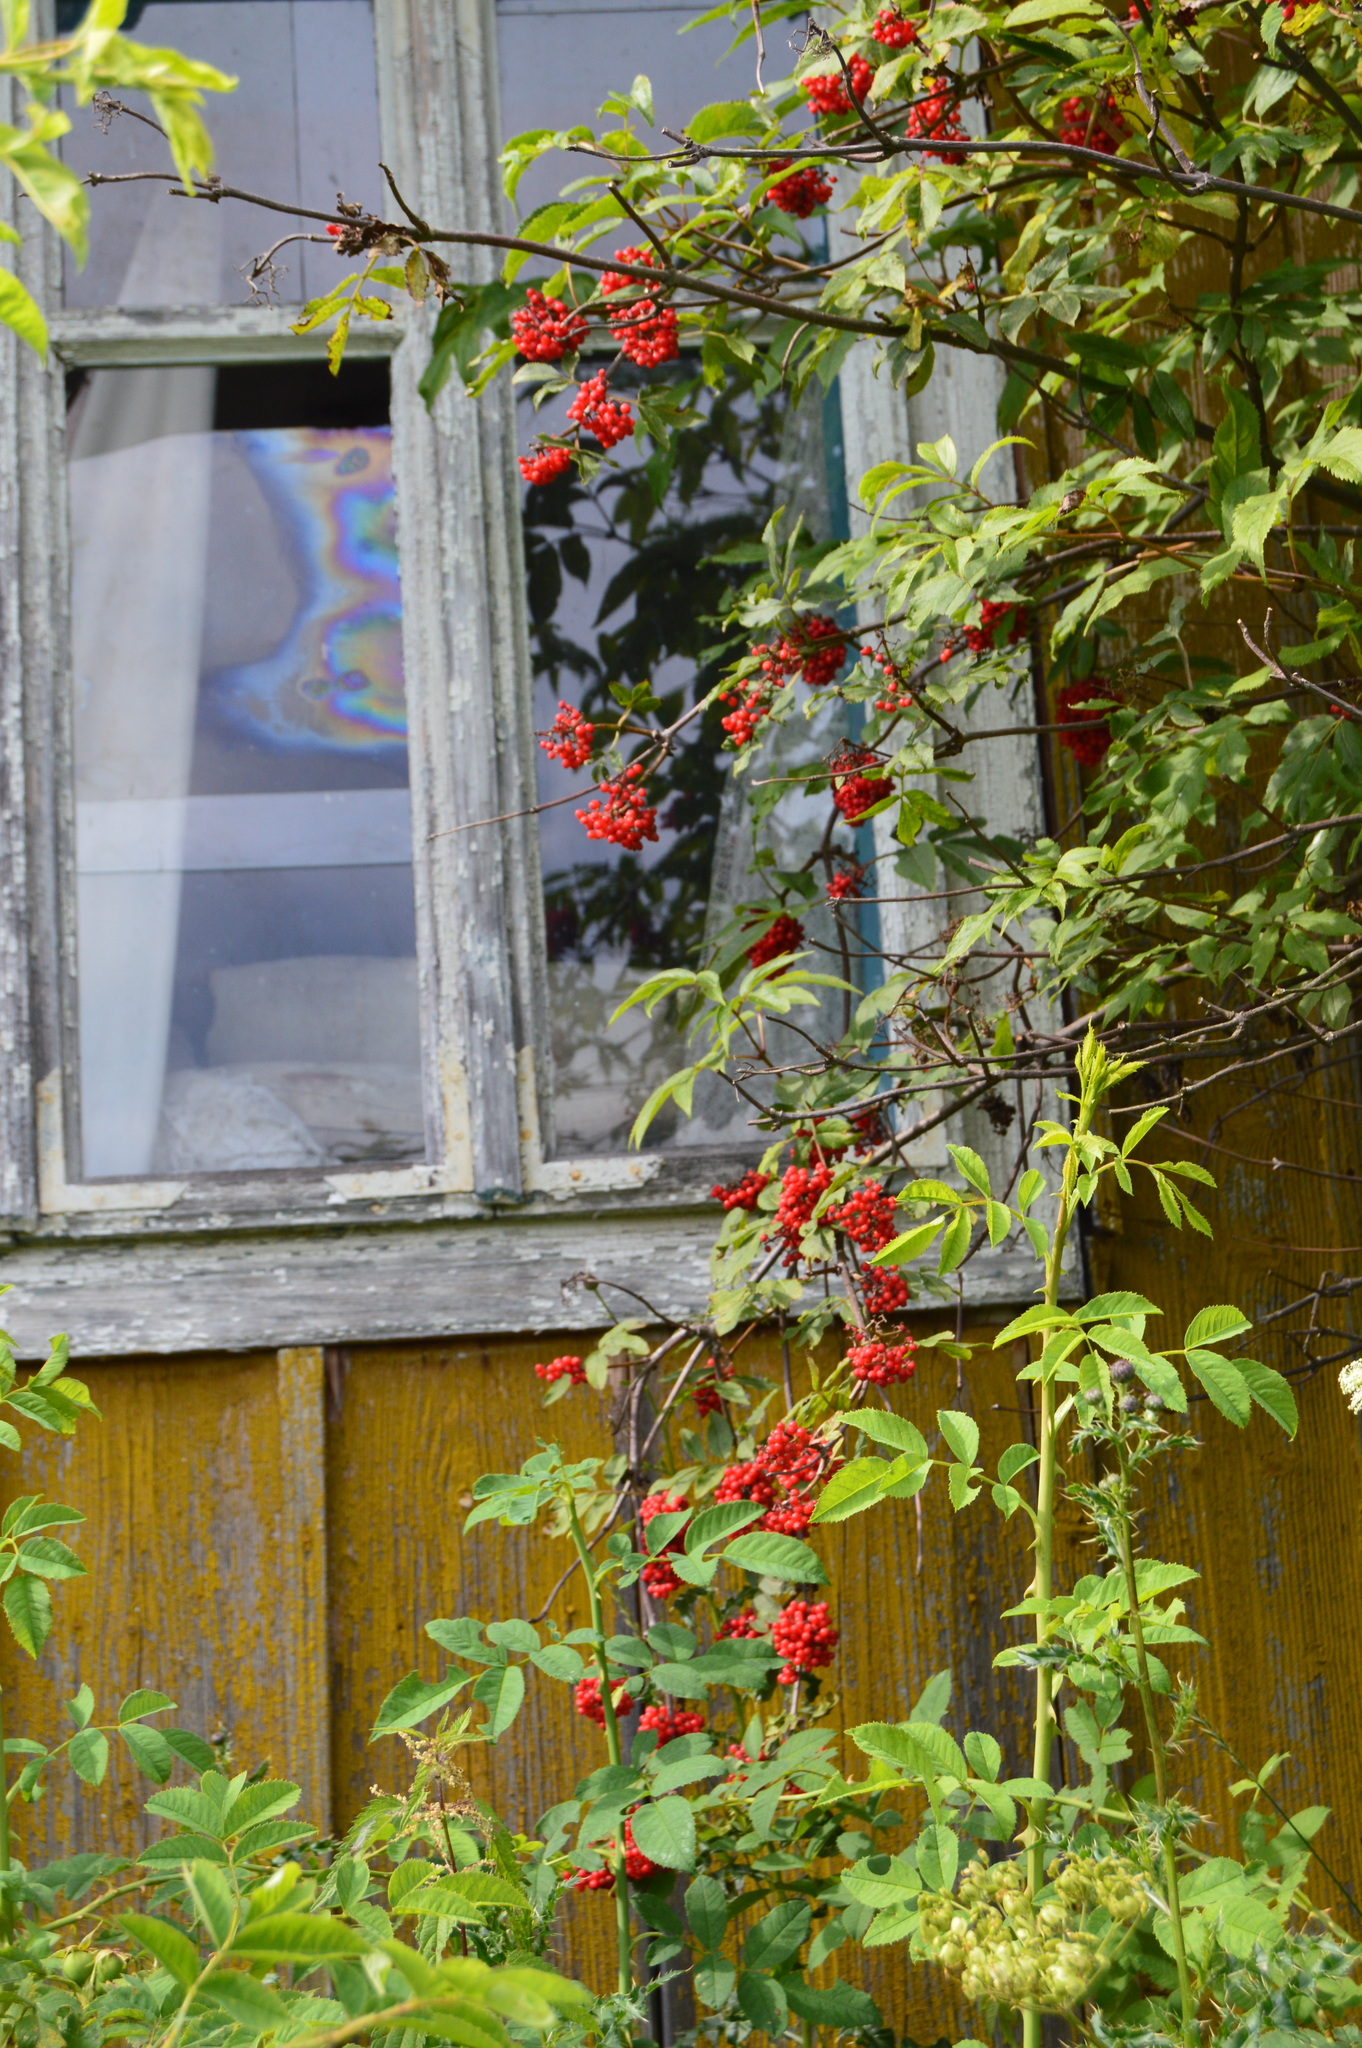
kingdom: Plantae
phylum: Tracheophyta
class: Magnoliopsida
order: Dipsacales
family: Viburnaceae
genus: Sambucus
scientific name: Sambucus racemosa
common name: Red-berried elder
